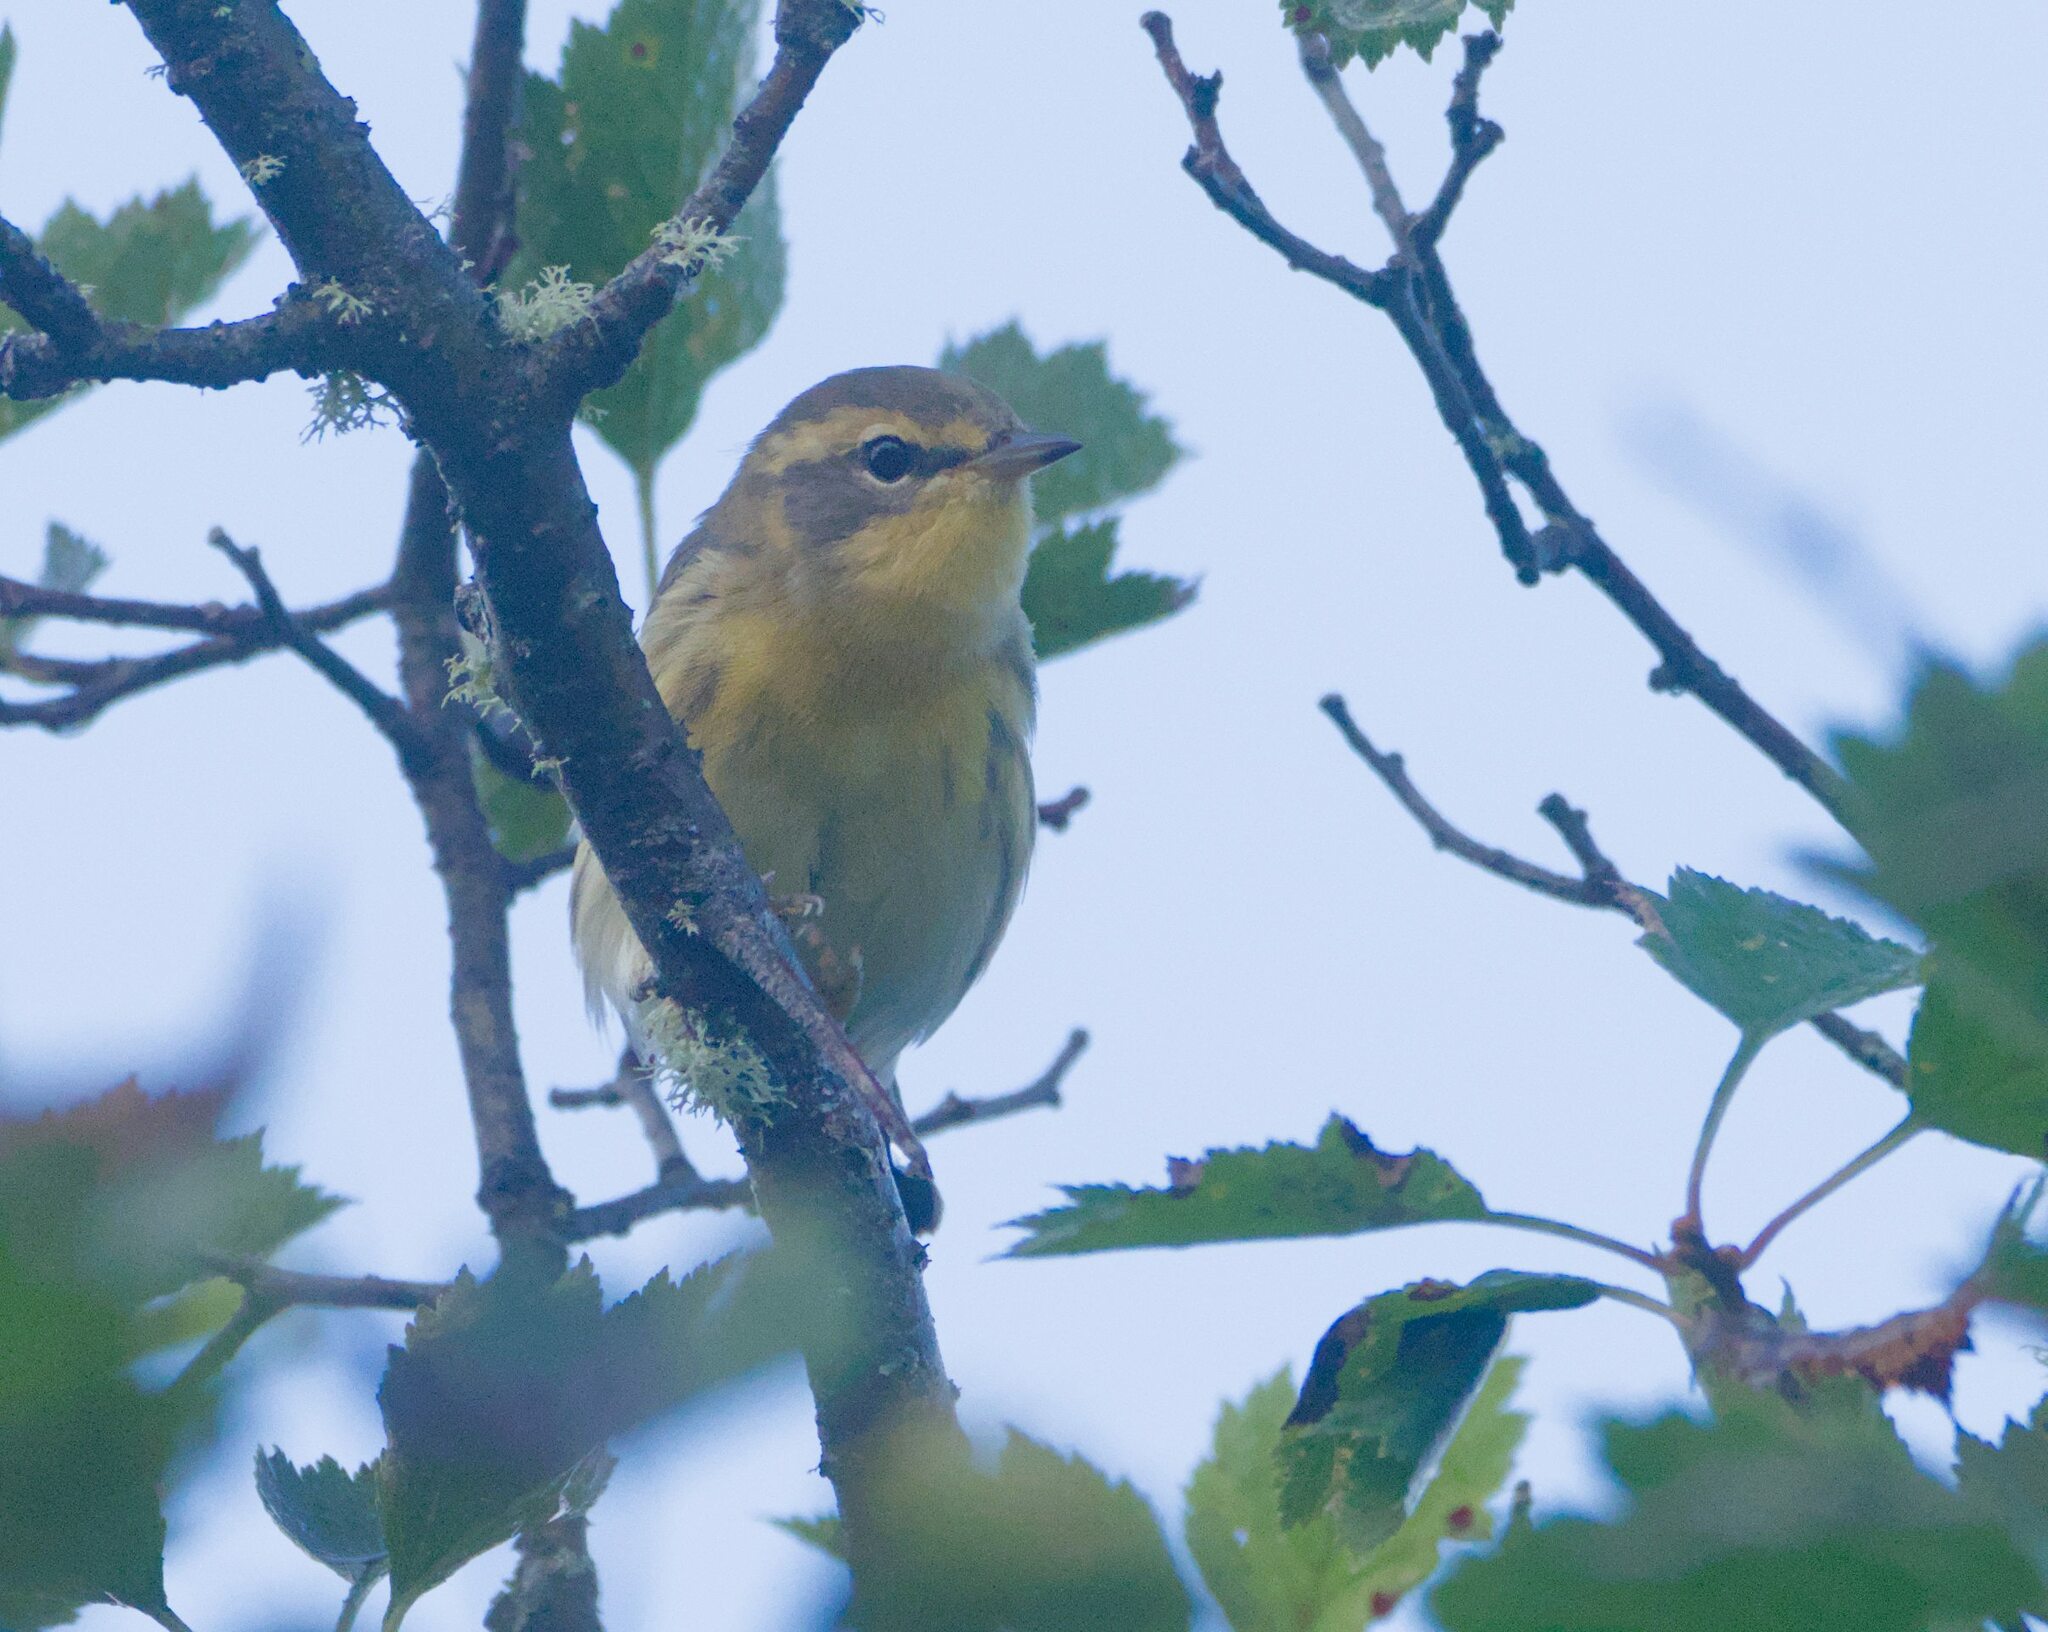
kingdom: Animalia
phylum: Chordata
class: Aves
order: Passeriformes
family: Parulidae
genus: Setophaga
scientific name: Setophaga fusca
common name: Blackburnian warbler
